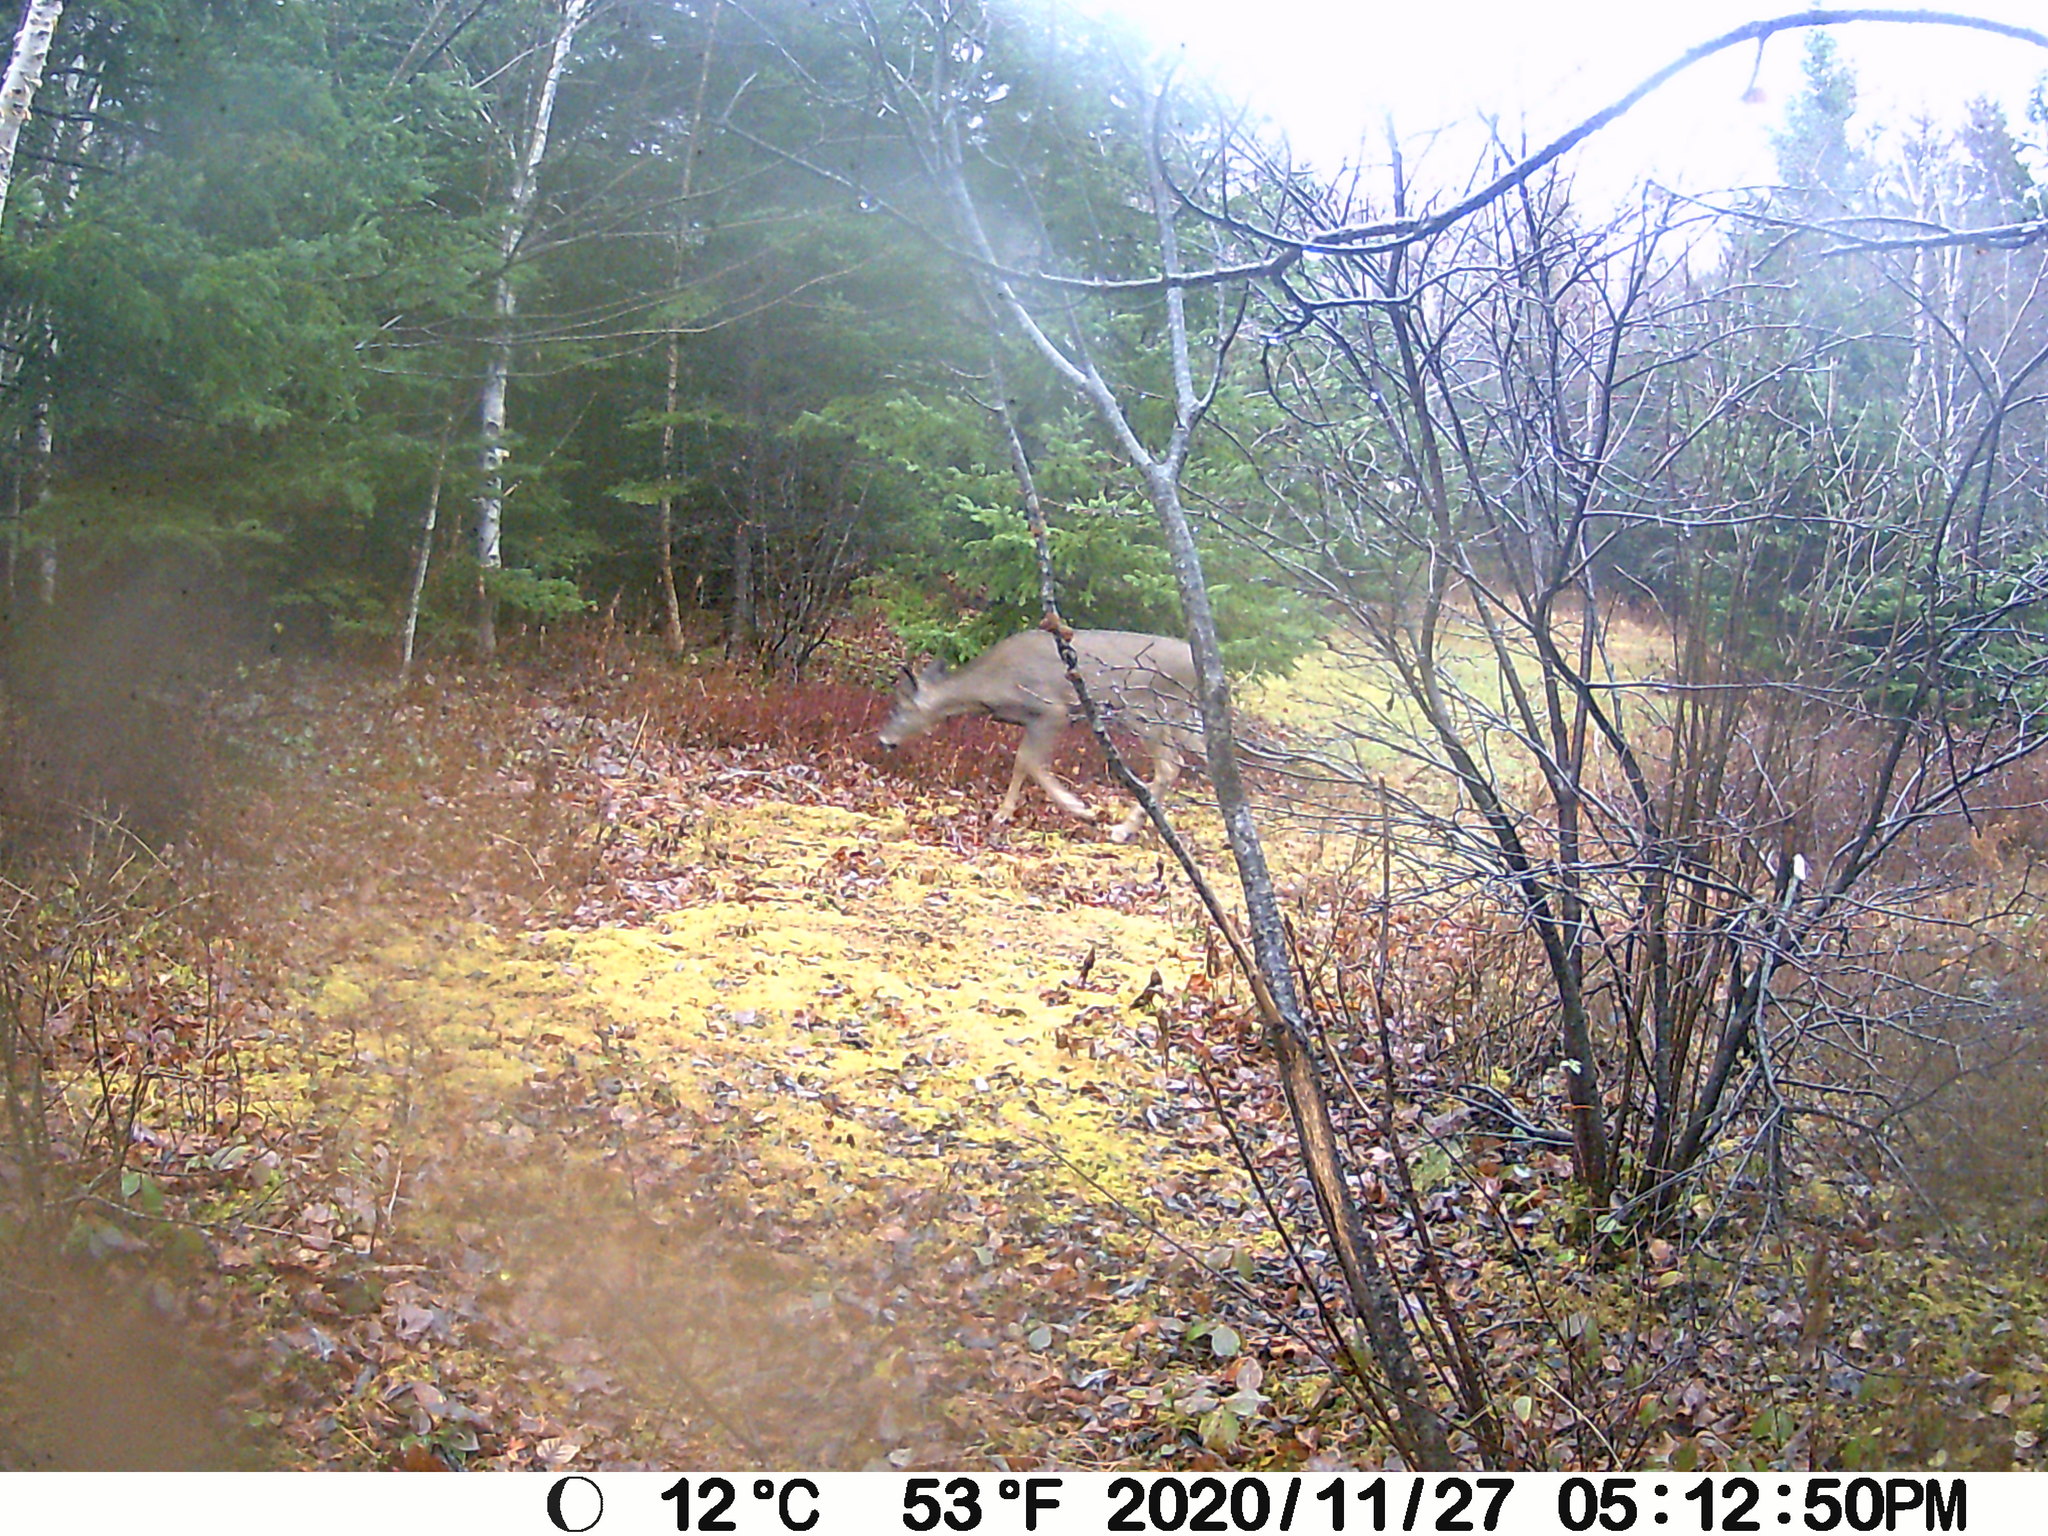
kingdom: Animalia
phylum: Chordata
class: Mammalia
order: Artiodactyla
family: Cervidae
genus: Odocoileus
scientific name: Odocoileus virginianus
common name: White-tailed deer
